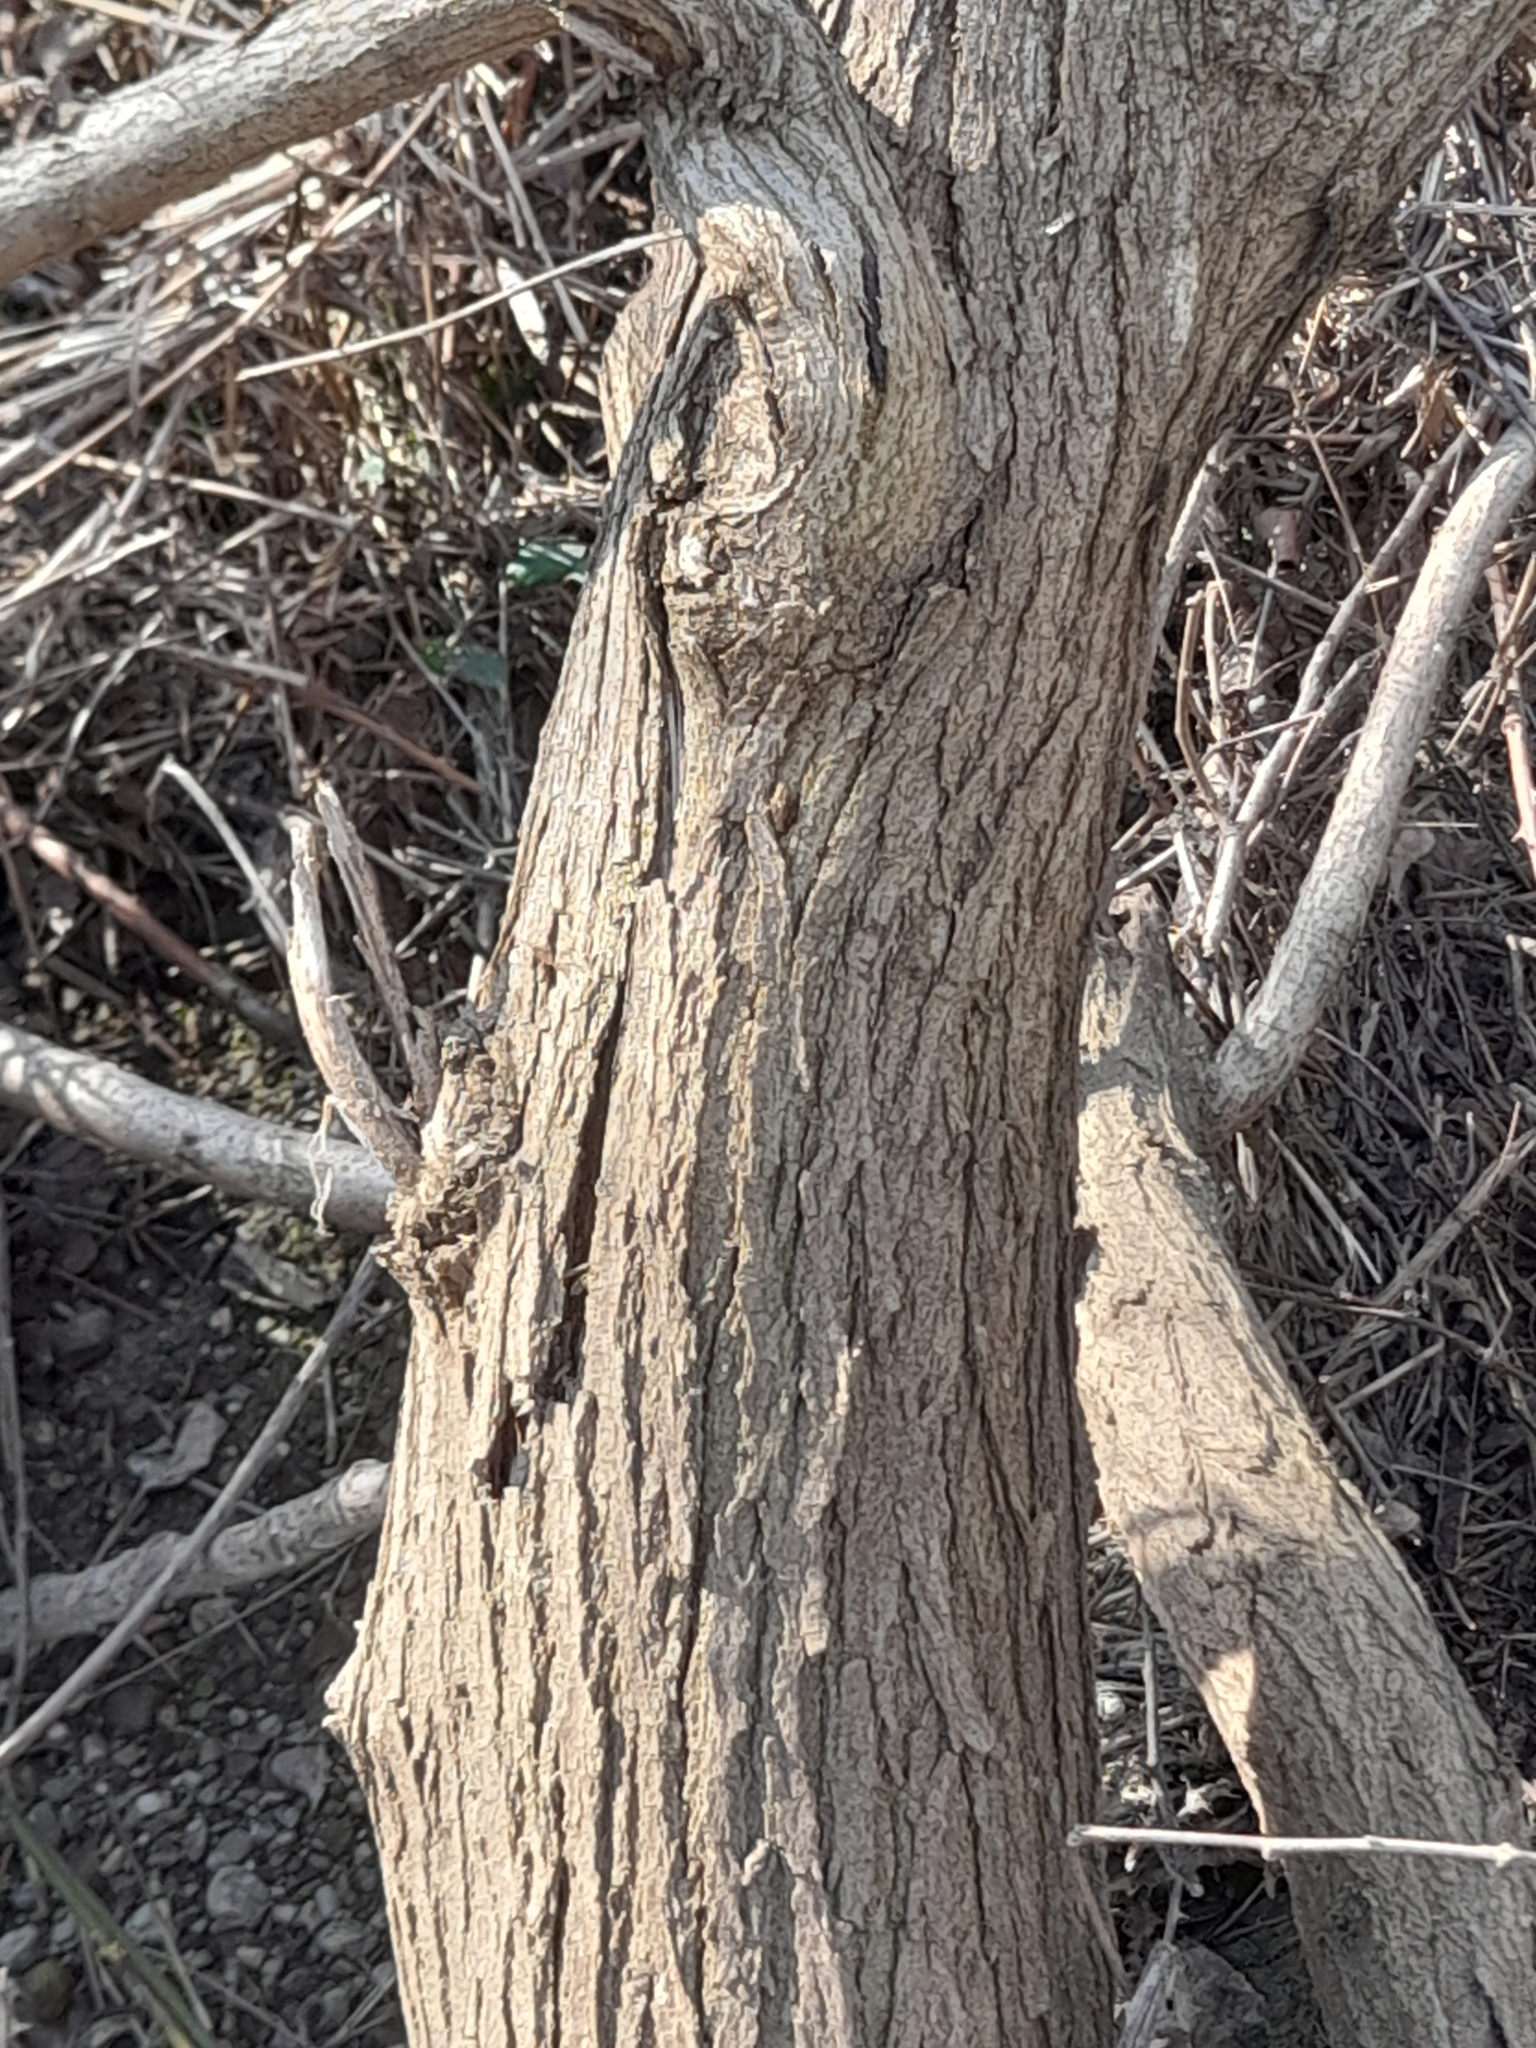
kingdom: Plantae
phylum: Tracheophyta
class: Magnoliopsida
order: Fabales
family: Fabaceae
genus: Robinia
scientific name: Robinia pseudoacacia
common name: Black locust
